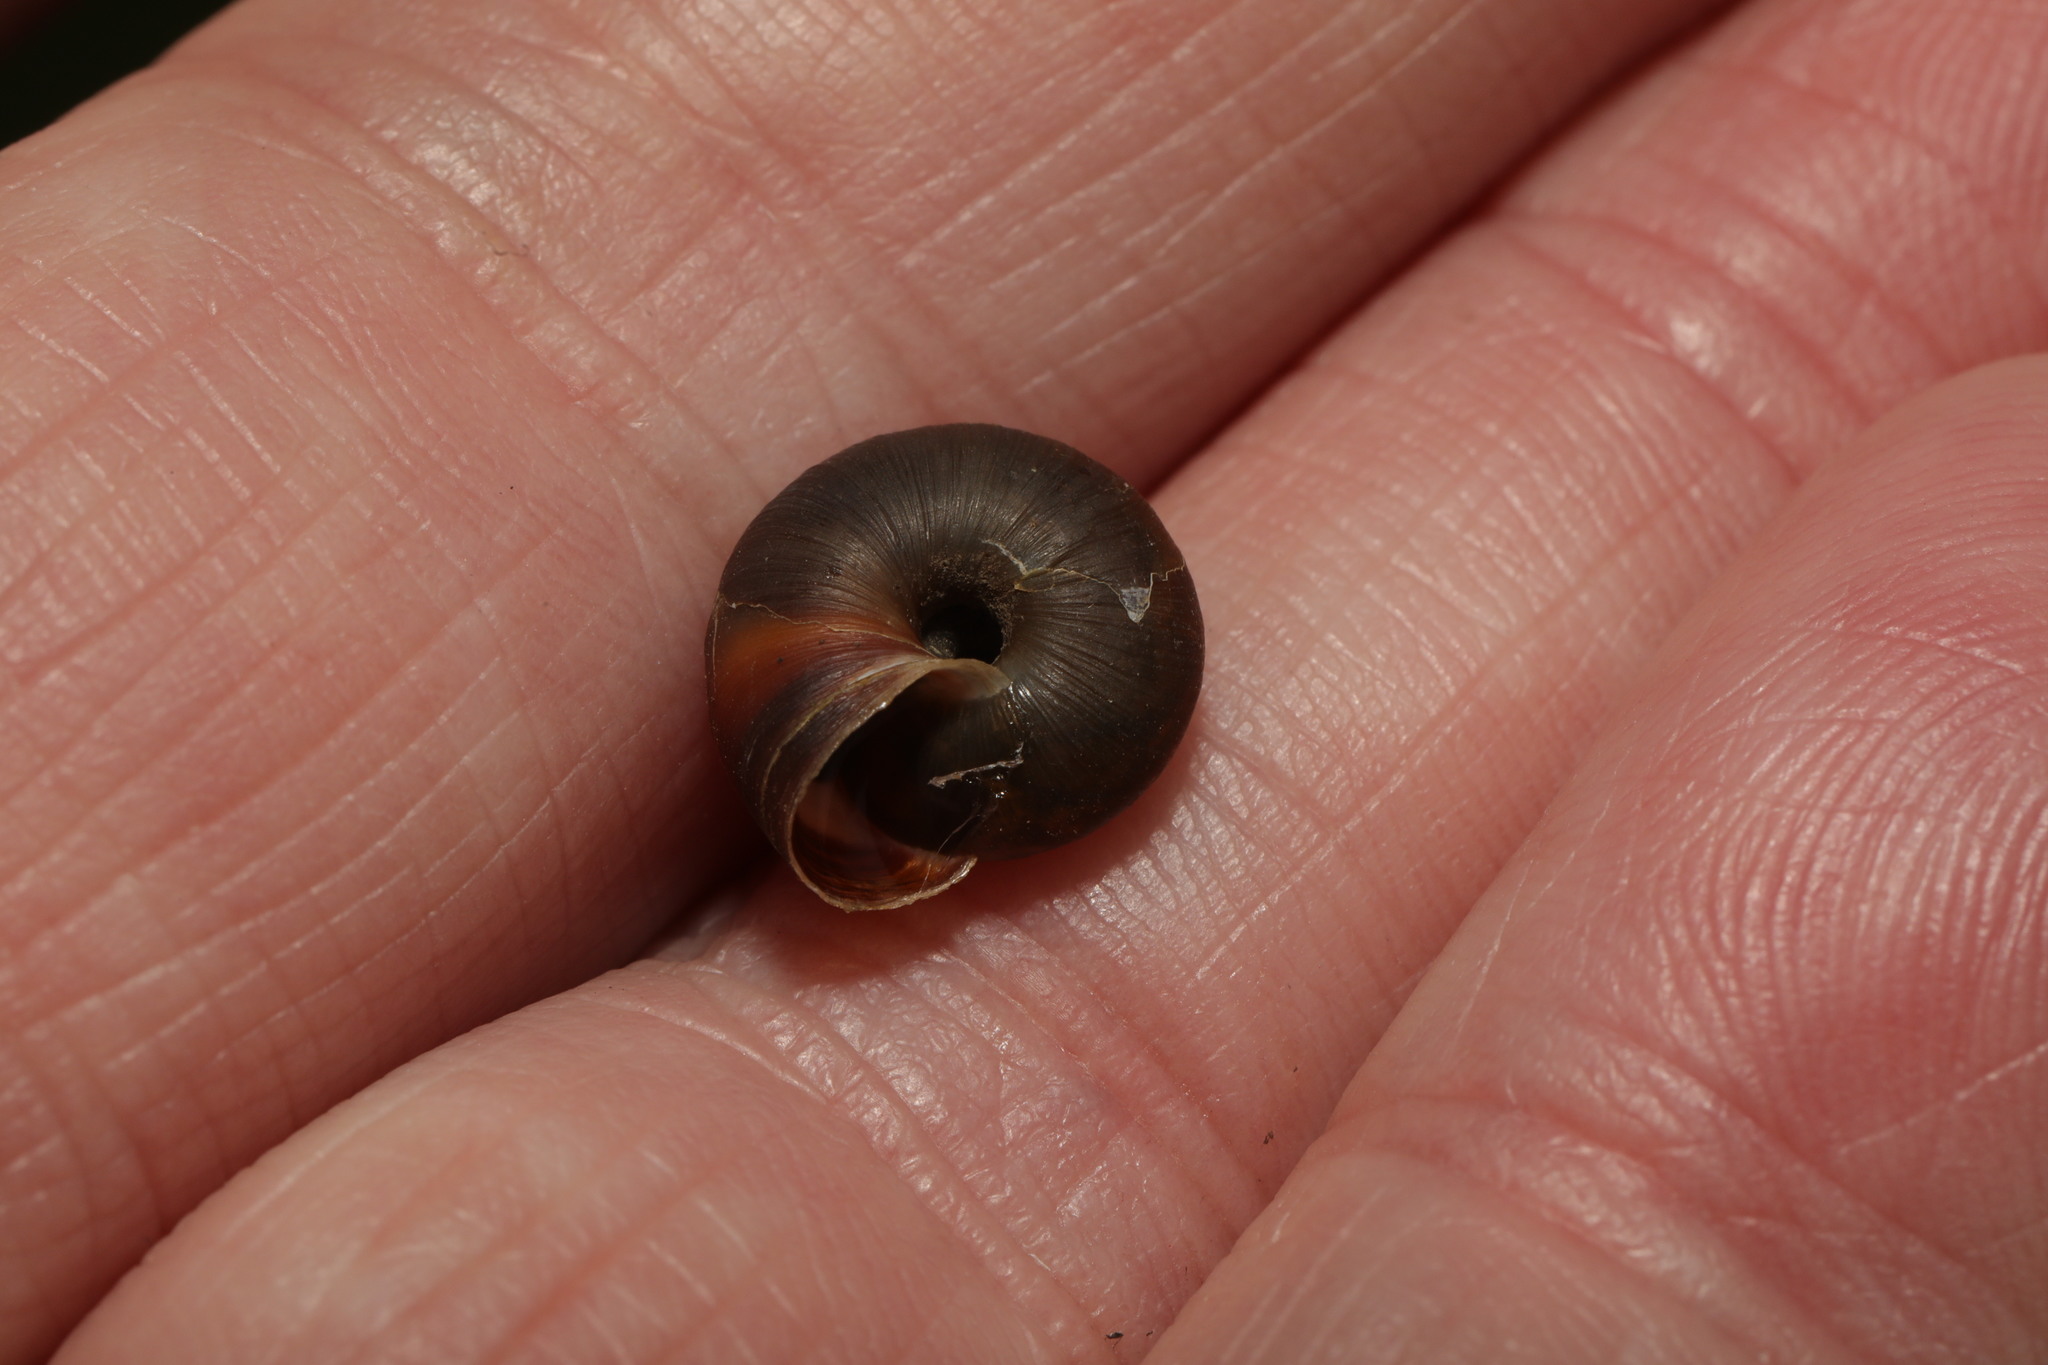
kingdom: Animalia
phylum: Mollusca
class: Gastropoda
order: Stylommatophora
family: Hygromiidae
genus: Trochulus
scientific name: Trochulus striolatus
